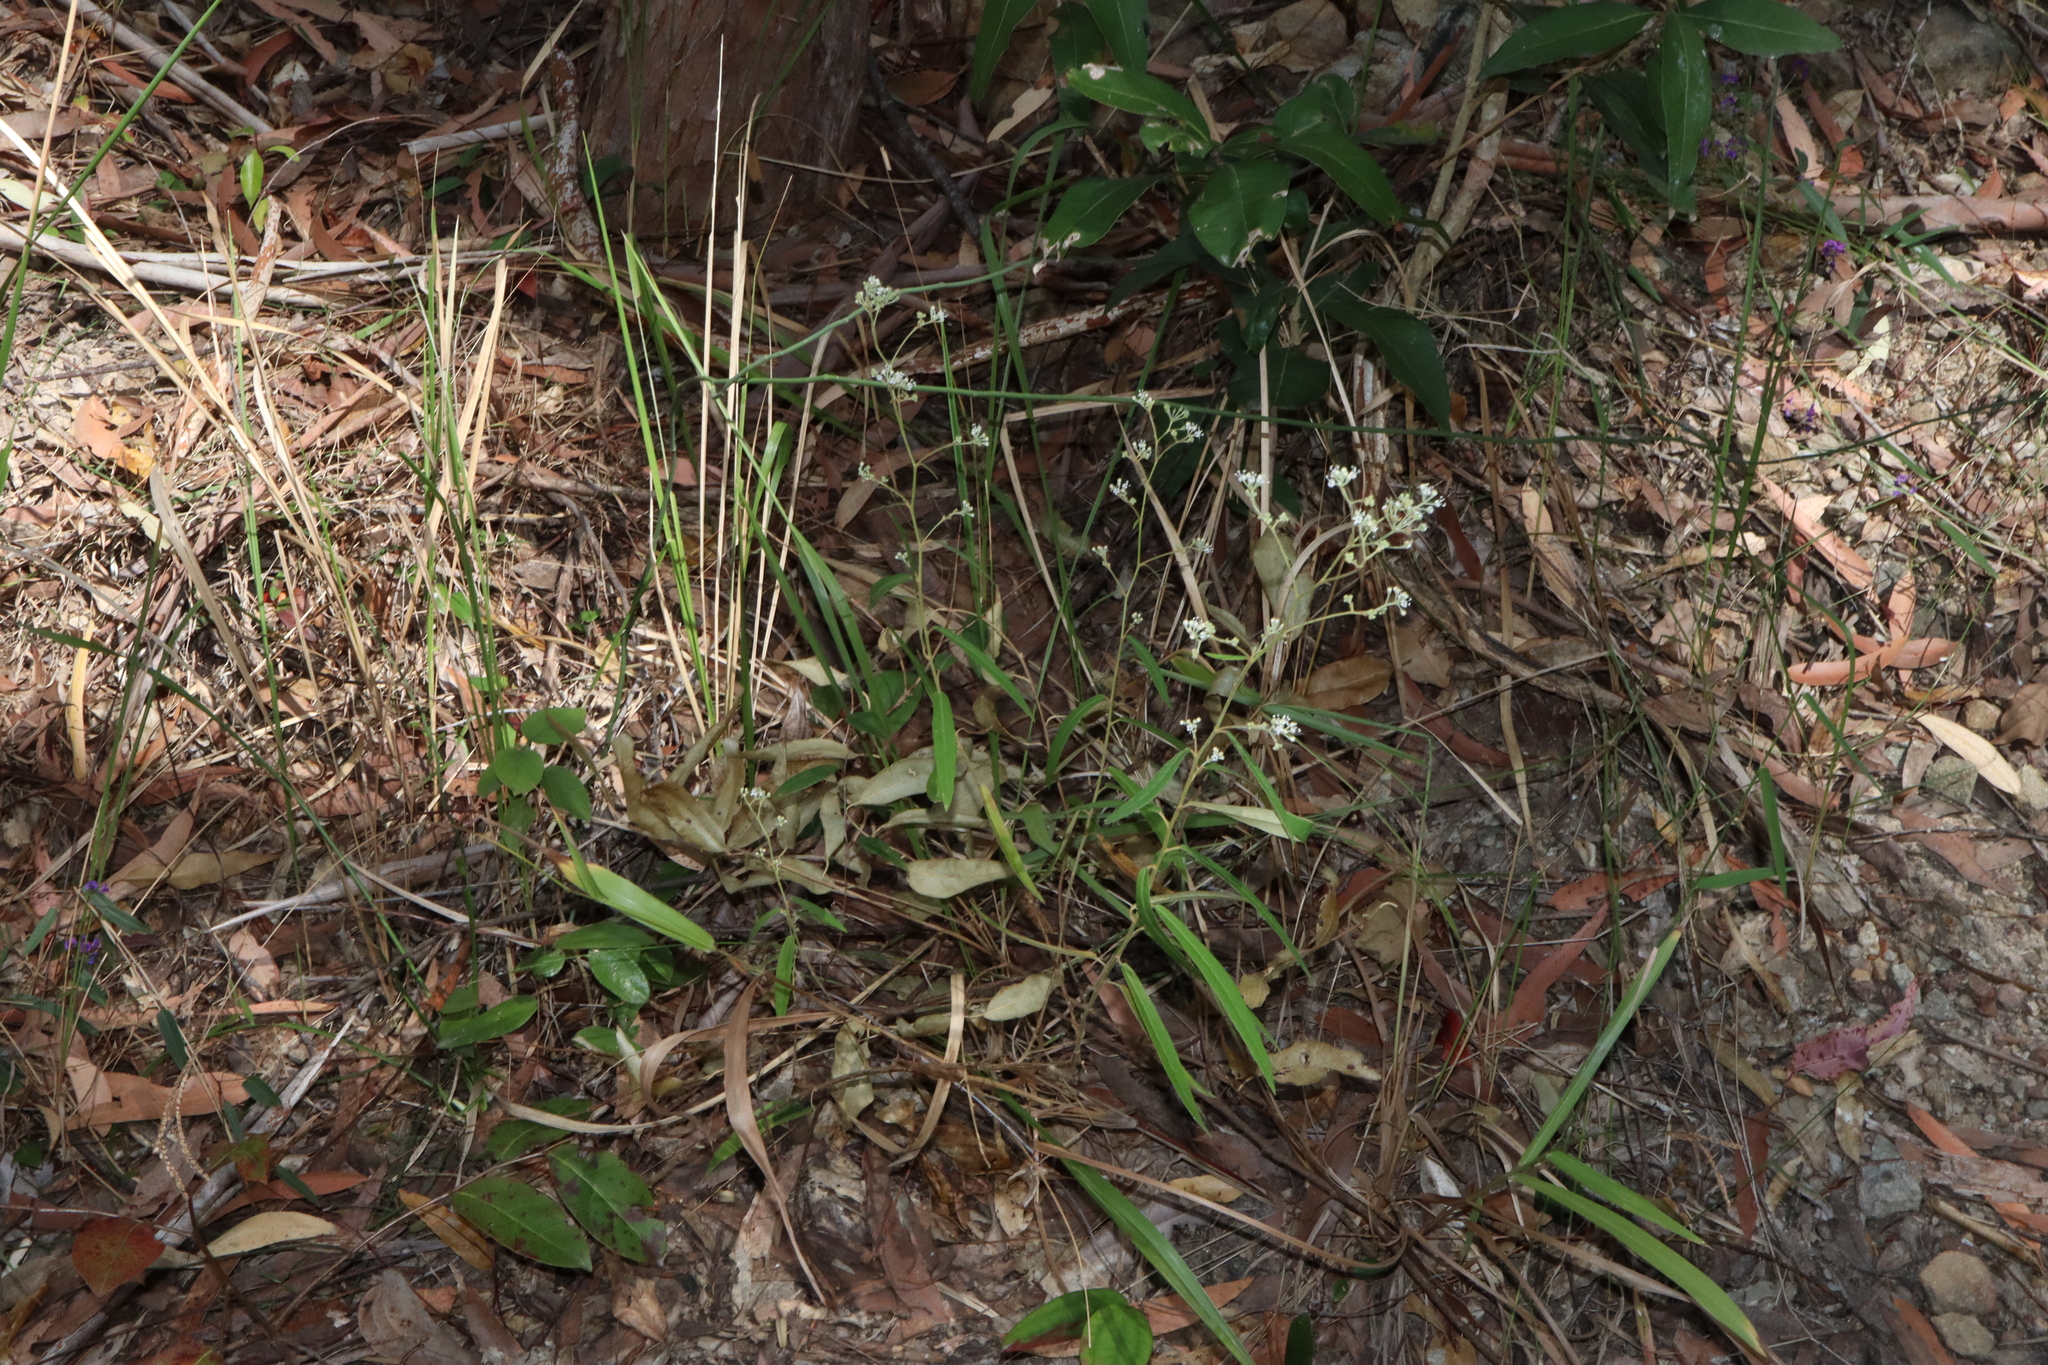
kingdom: Plantae
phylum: Tracheophyta
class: Magnoliopsida
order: Apiales
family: Araliaceae
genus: Astrotricha
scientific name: Astrotricha longifolia
